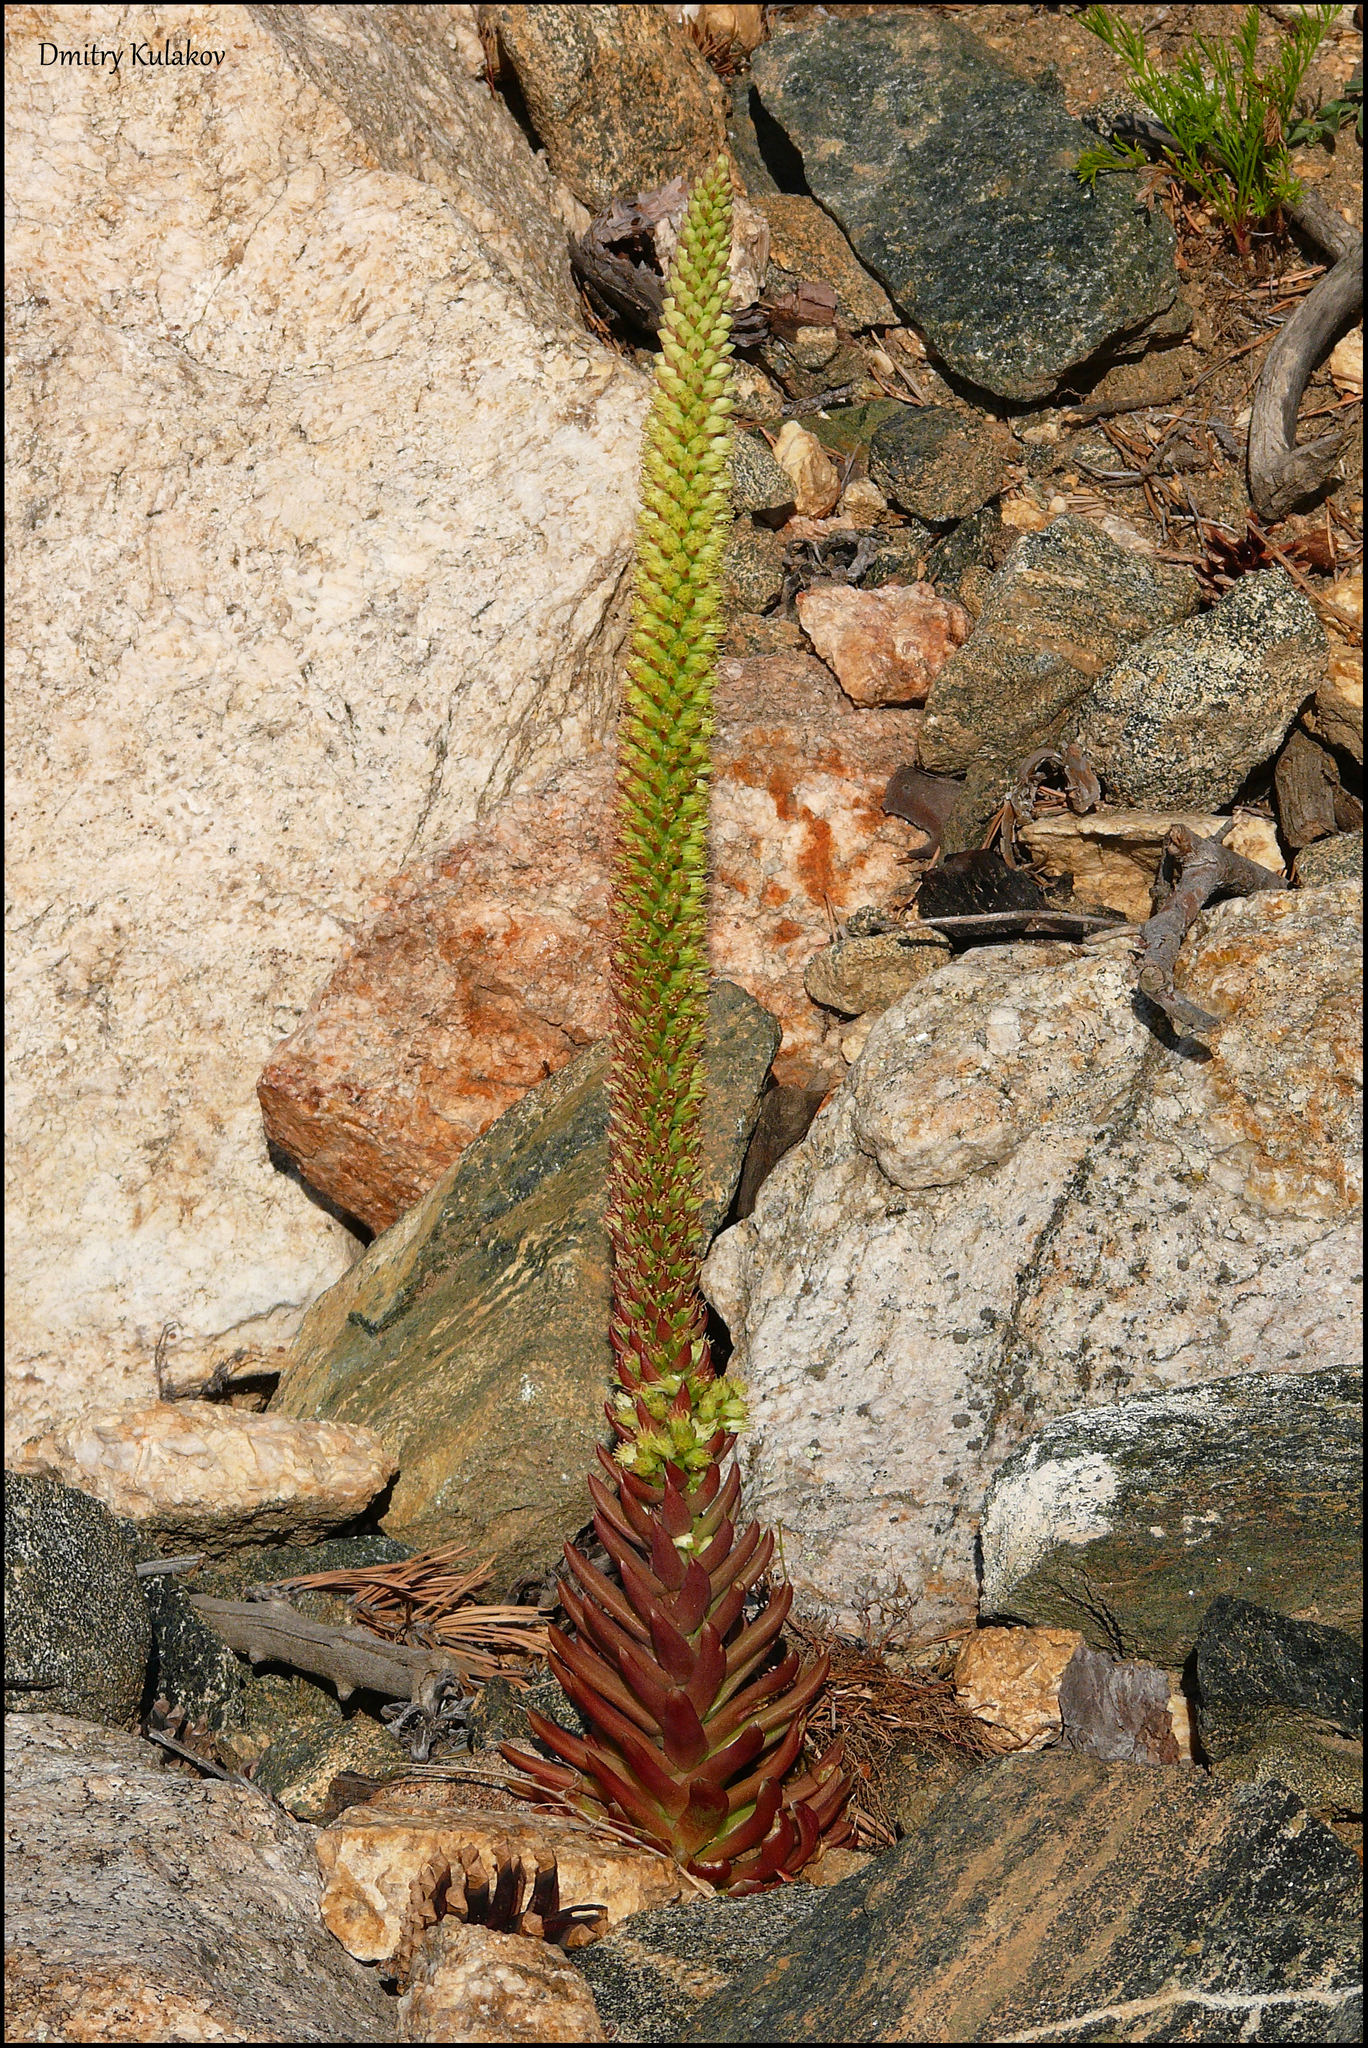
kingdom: Plantae
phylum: Tracheophyta
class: Magnoliopsida
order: Saxifragales
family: Crassulaceae
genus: Orostachys
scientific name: Orostachys spinosa
